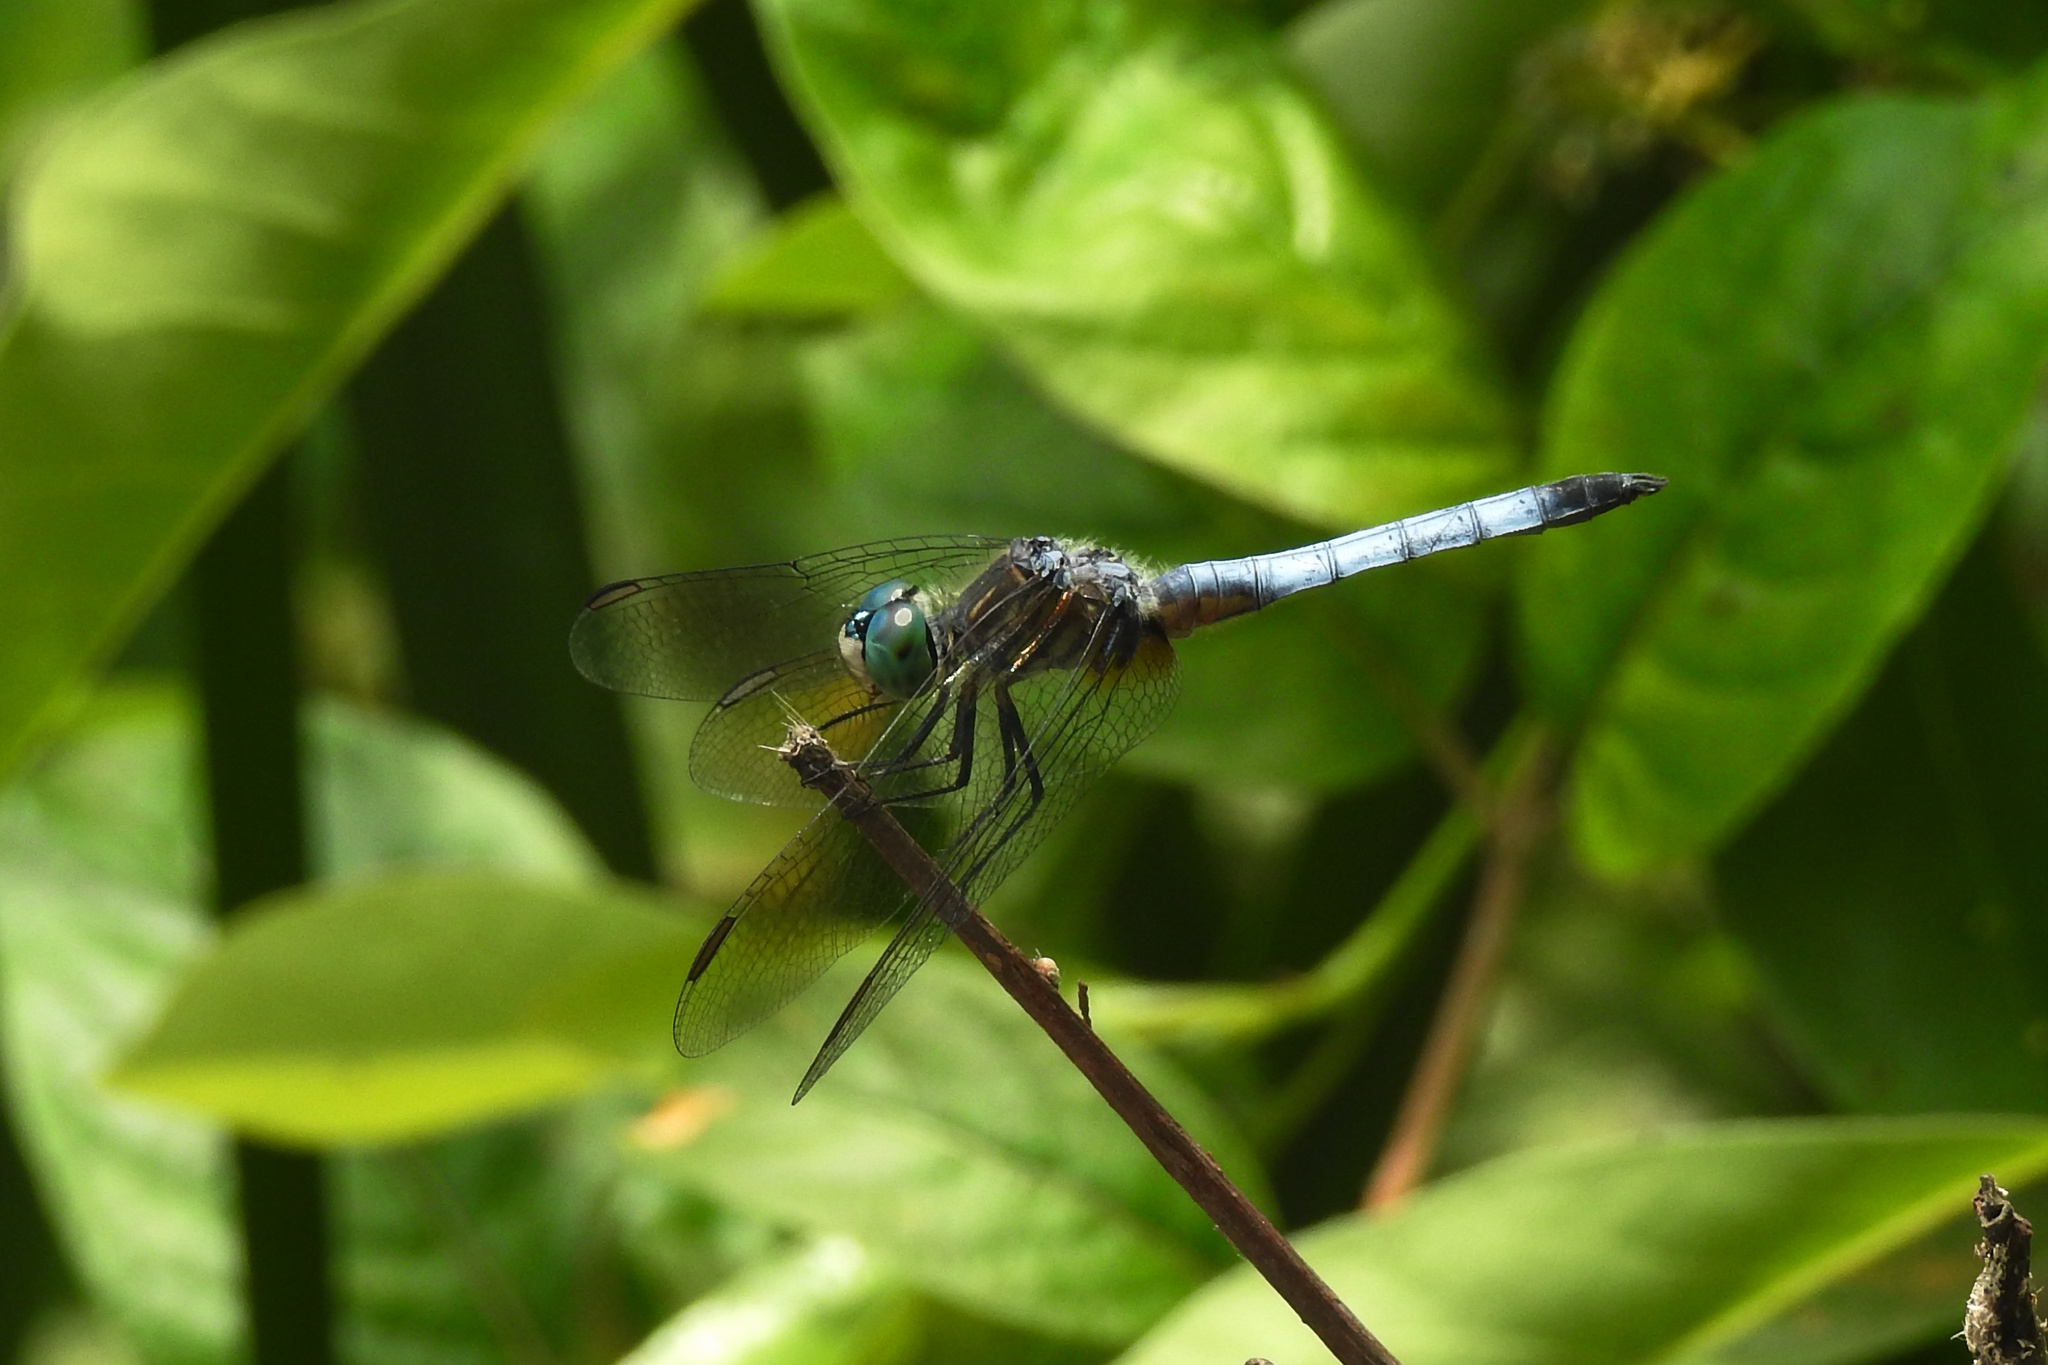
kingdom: Animalia
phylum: Arthropoda
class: Insecta
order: Odonata
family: Libellulidae
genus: Pachydiplax
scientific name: Pachydiplax longipennis
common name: Blue dasher
